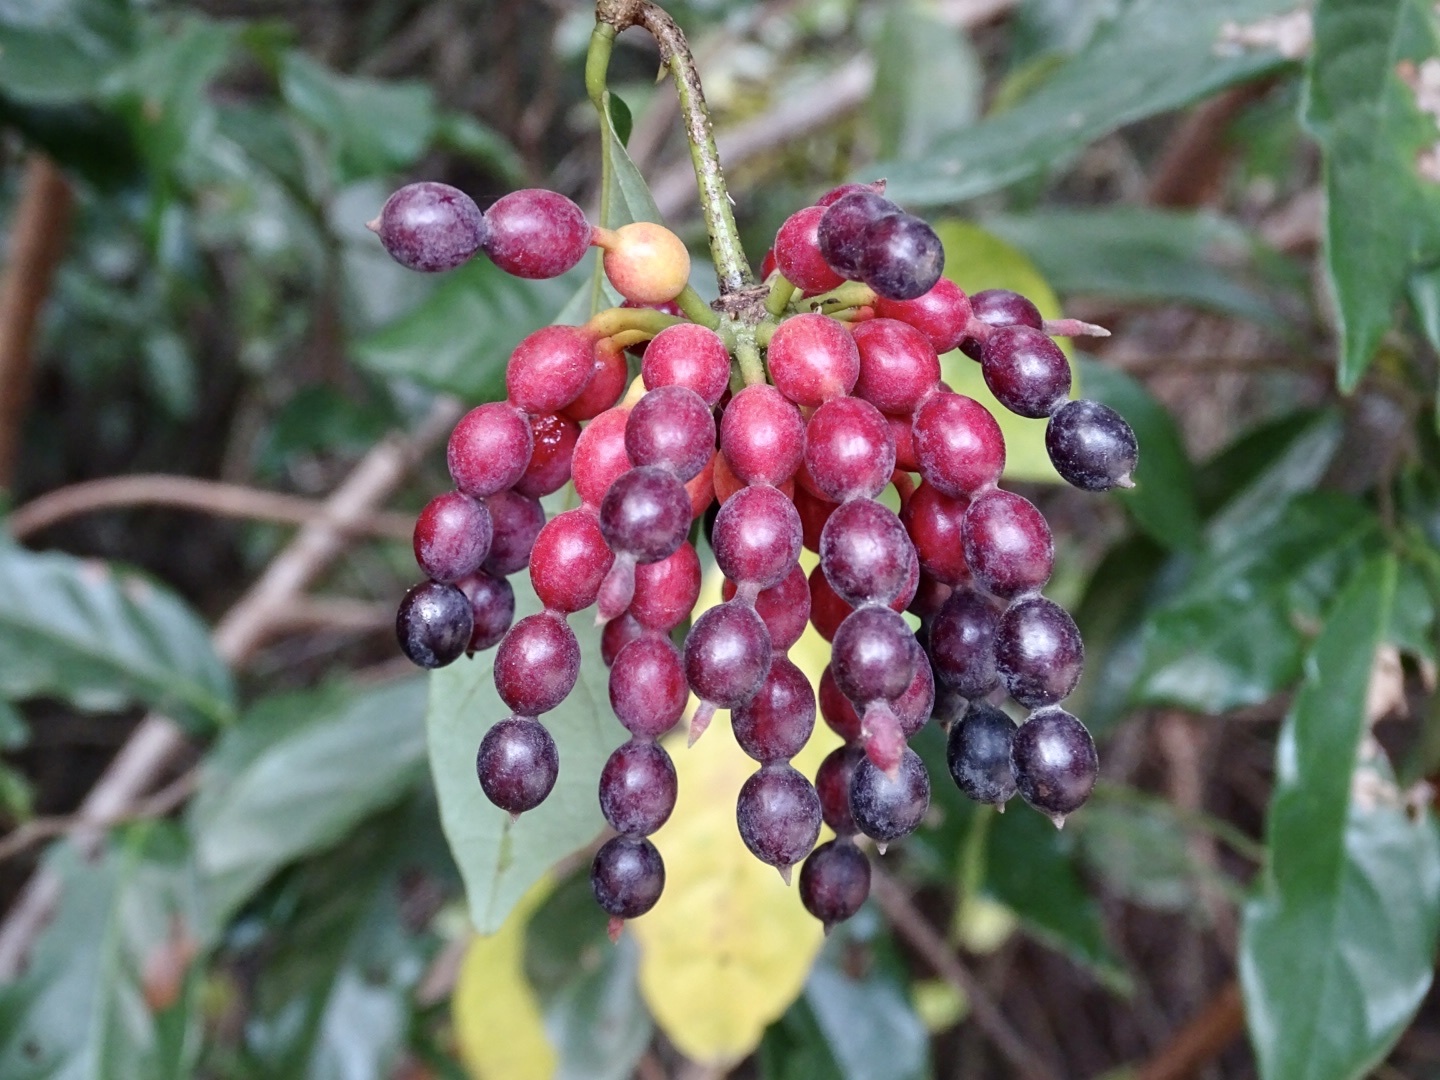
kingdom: Plantae
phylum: Tracheophyta
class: Magnoliopsida
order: Magnoliales
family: Annonaceae
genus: Desmos
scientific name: Desmos chinensis
